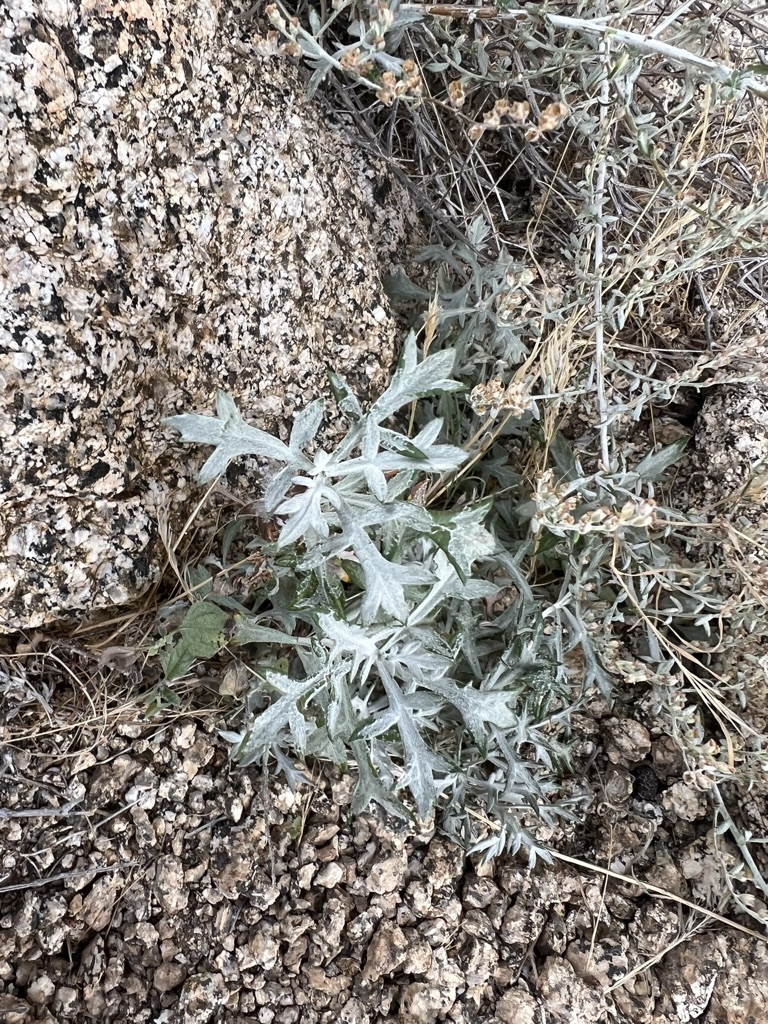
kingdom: Plantae
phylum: Tracheophyta
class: Magnoliopsida
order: Asterales
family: Asteraceae
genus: Artemisia
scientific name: Artemisia ludoviciana
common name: Western mugwort
